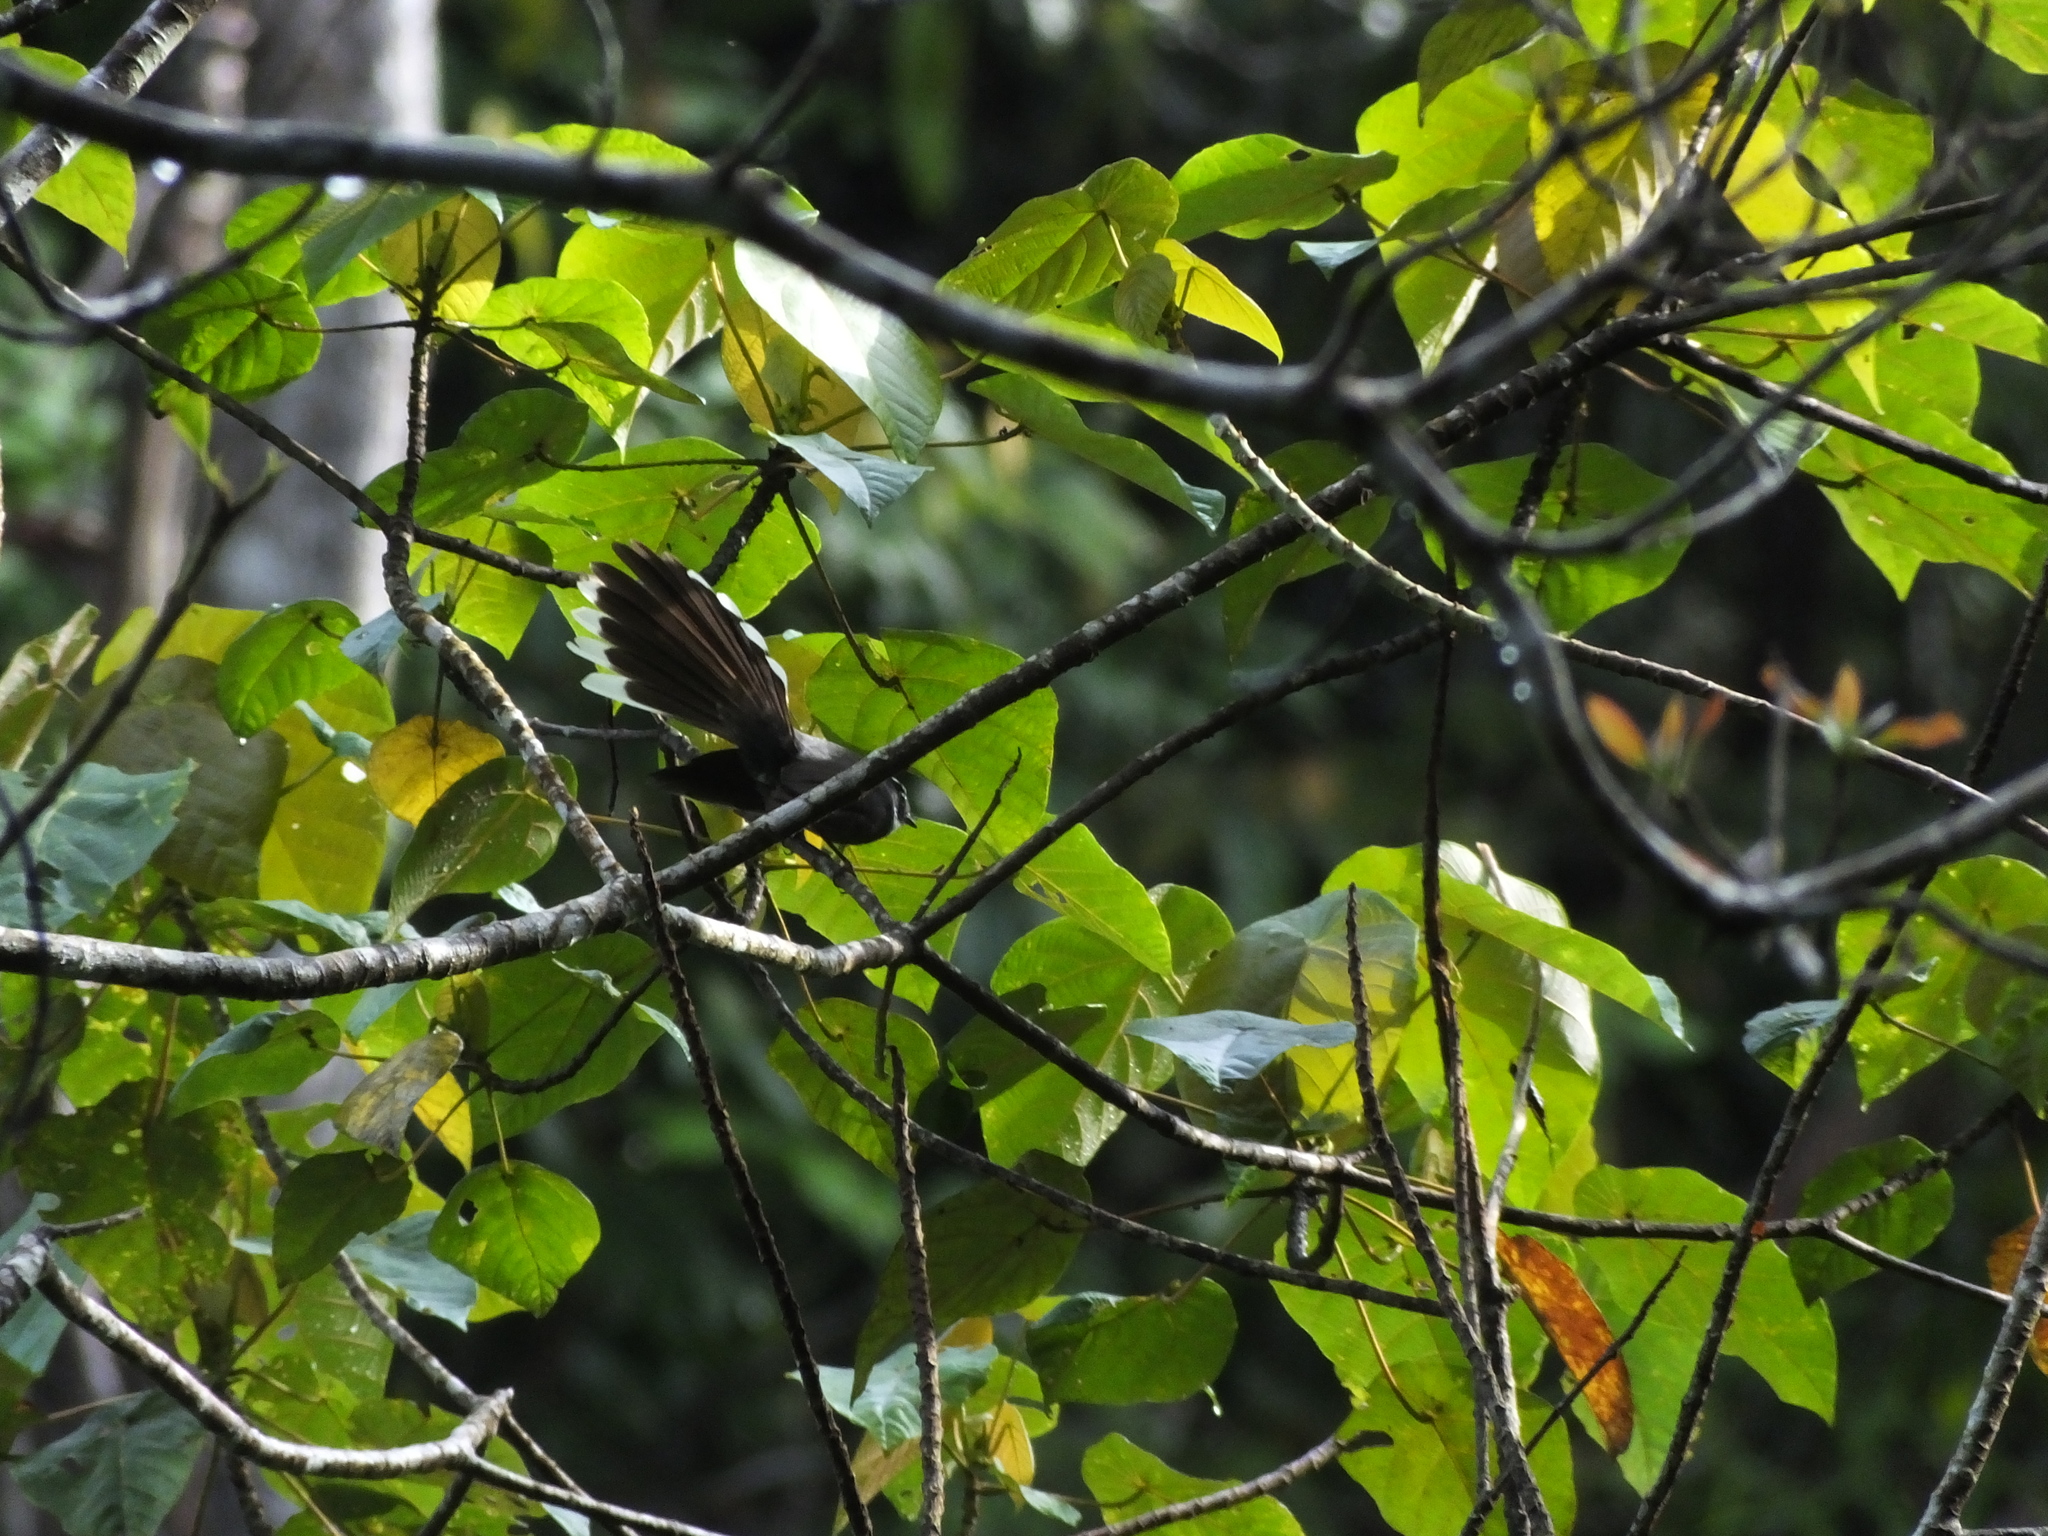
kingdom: Animalia
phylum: Chordata
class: Aves
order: Passeriformes
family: Rhipiduridae
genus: Rhipidura
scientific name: Rhipidura albicollis
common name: White-throated fantail
